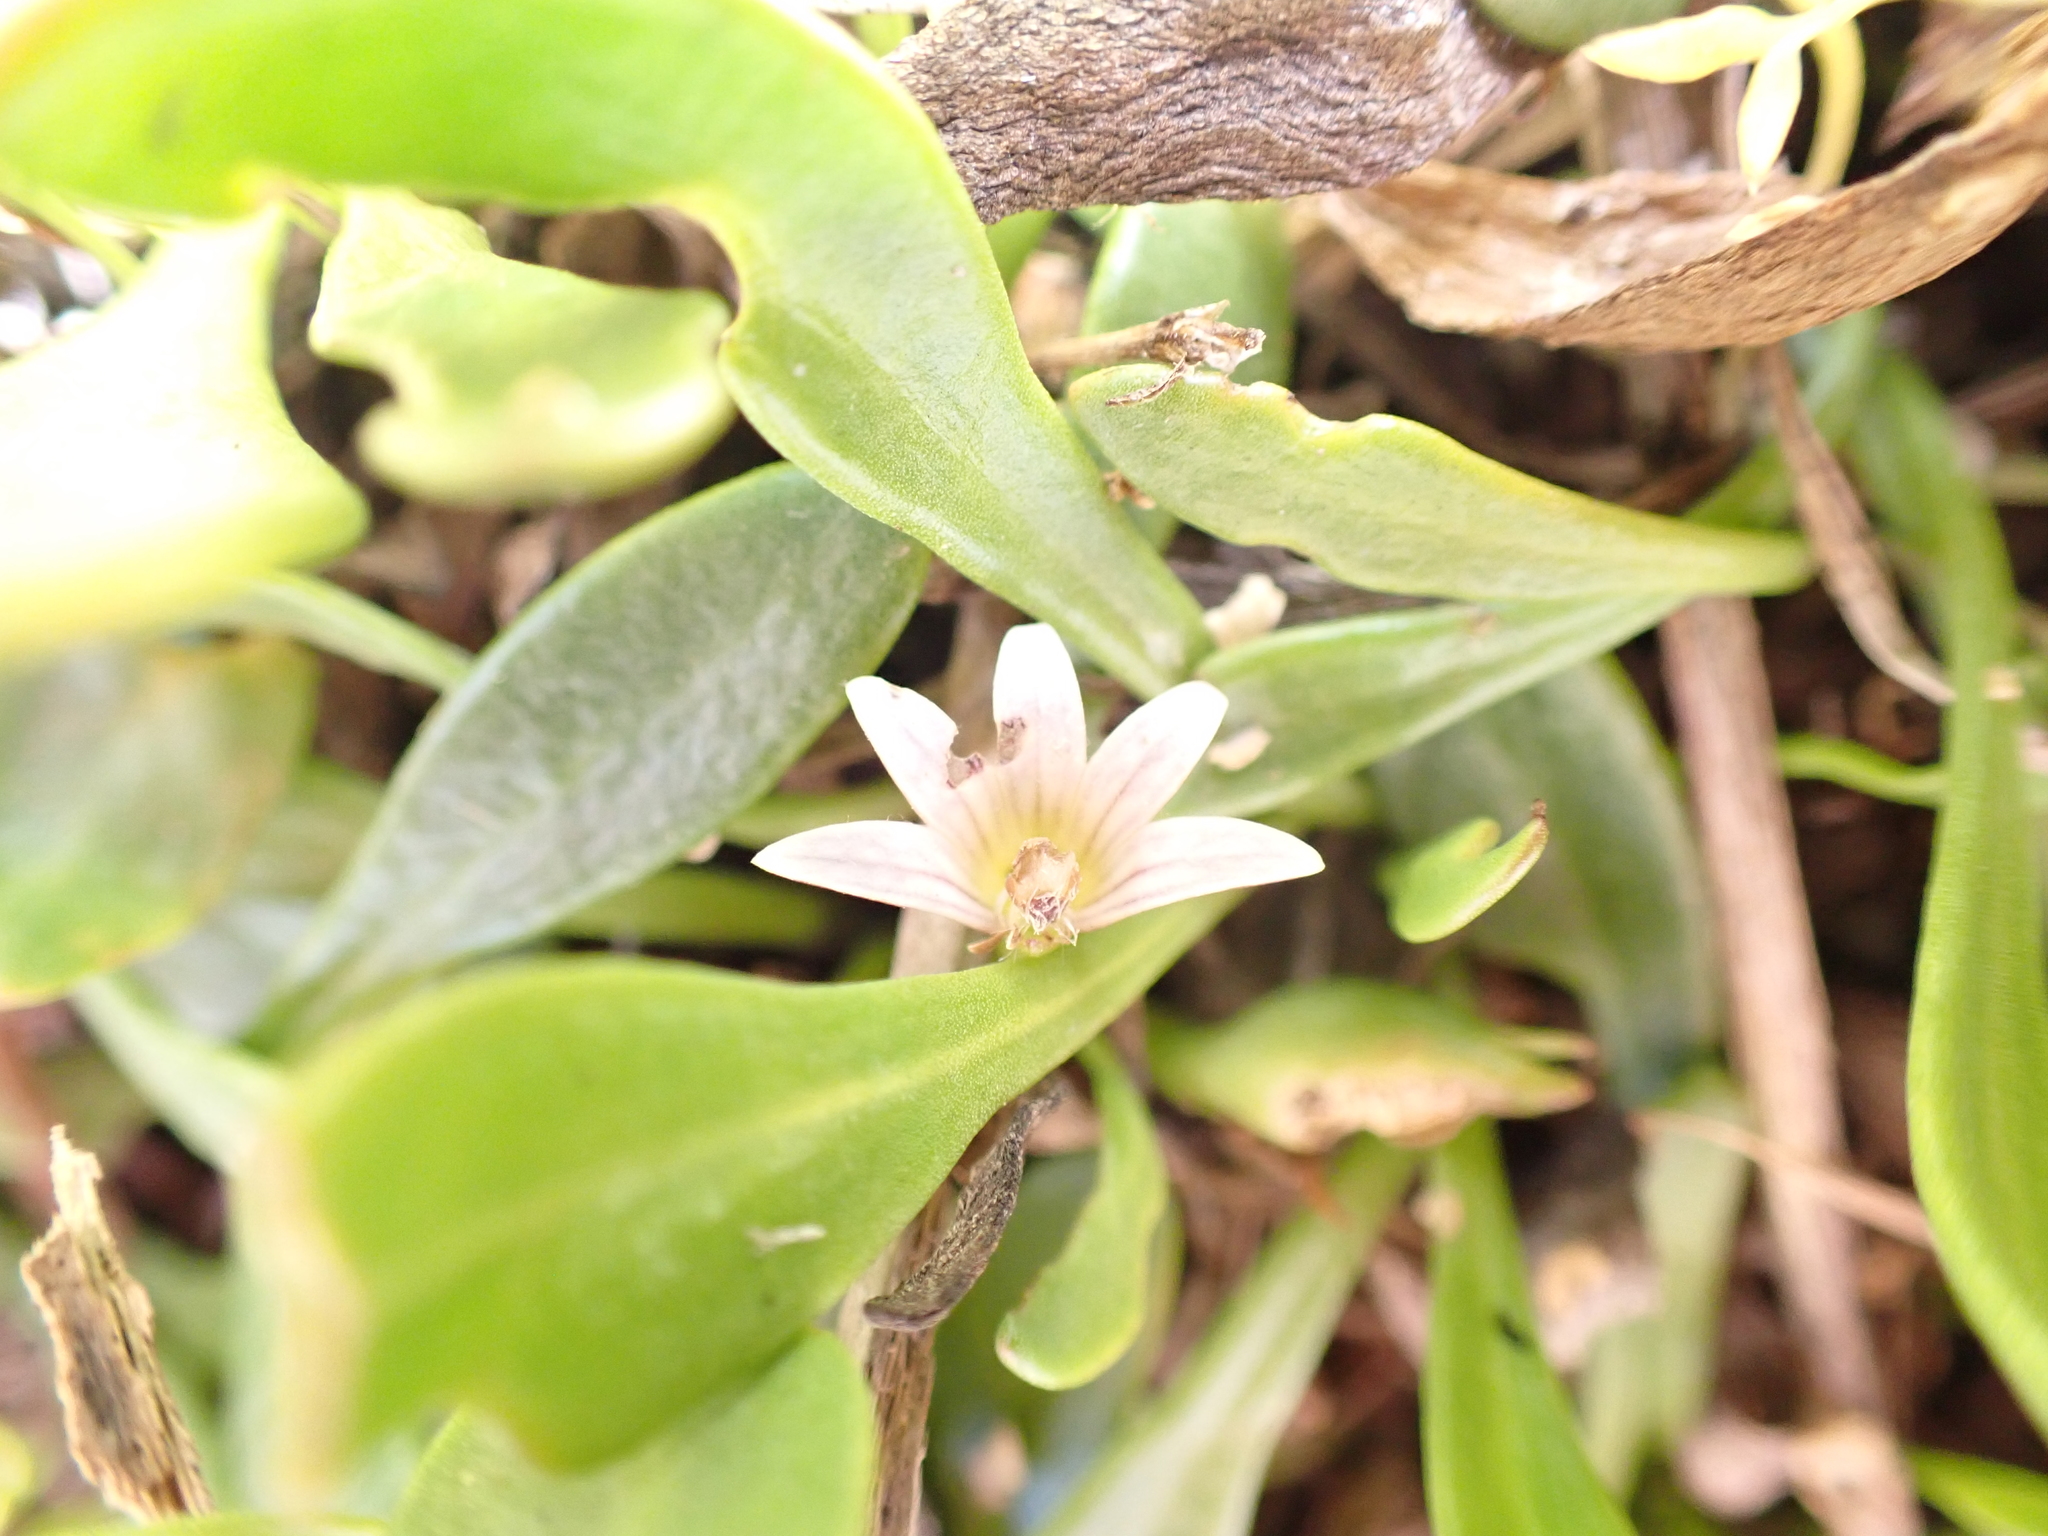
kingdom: Plantae
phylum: Tracheophyta
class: Magnoliopsida
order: Asterales
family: Goodeniaceae
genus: Goodenia
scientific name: Goodenia radicans
